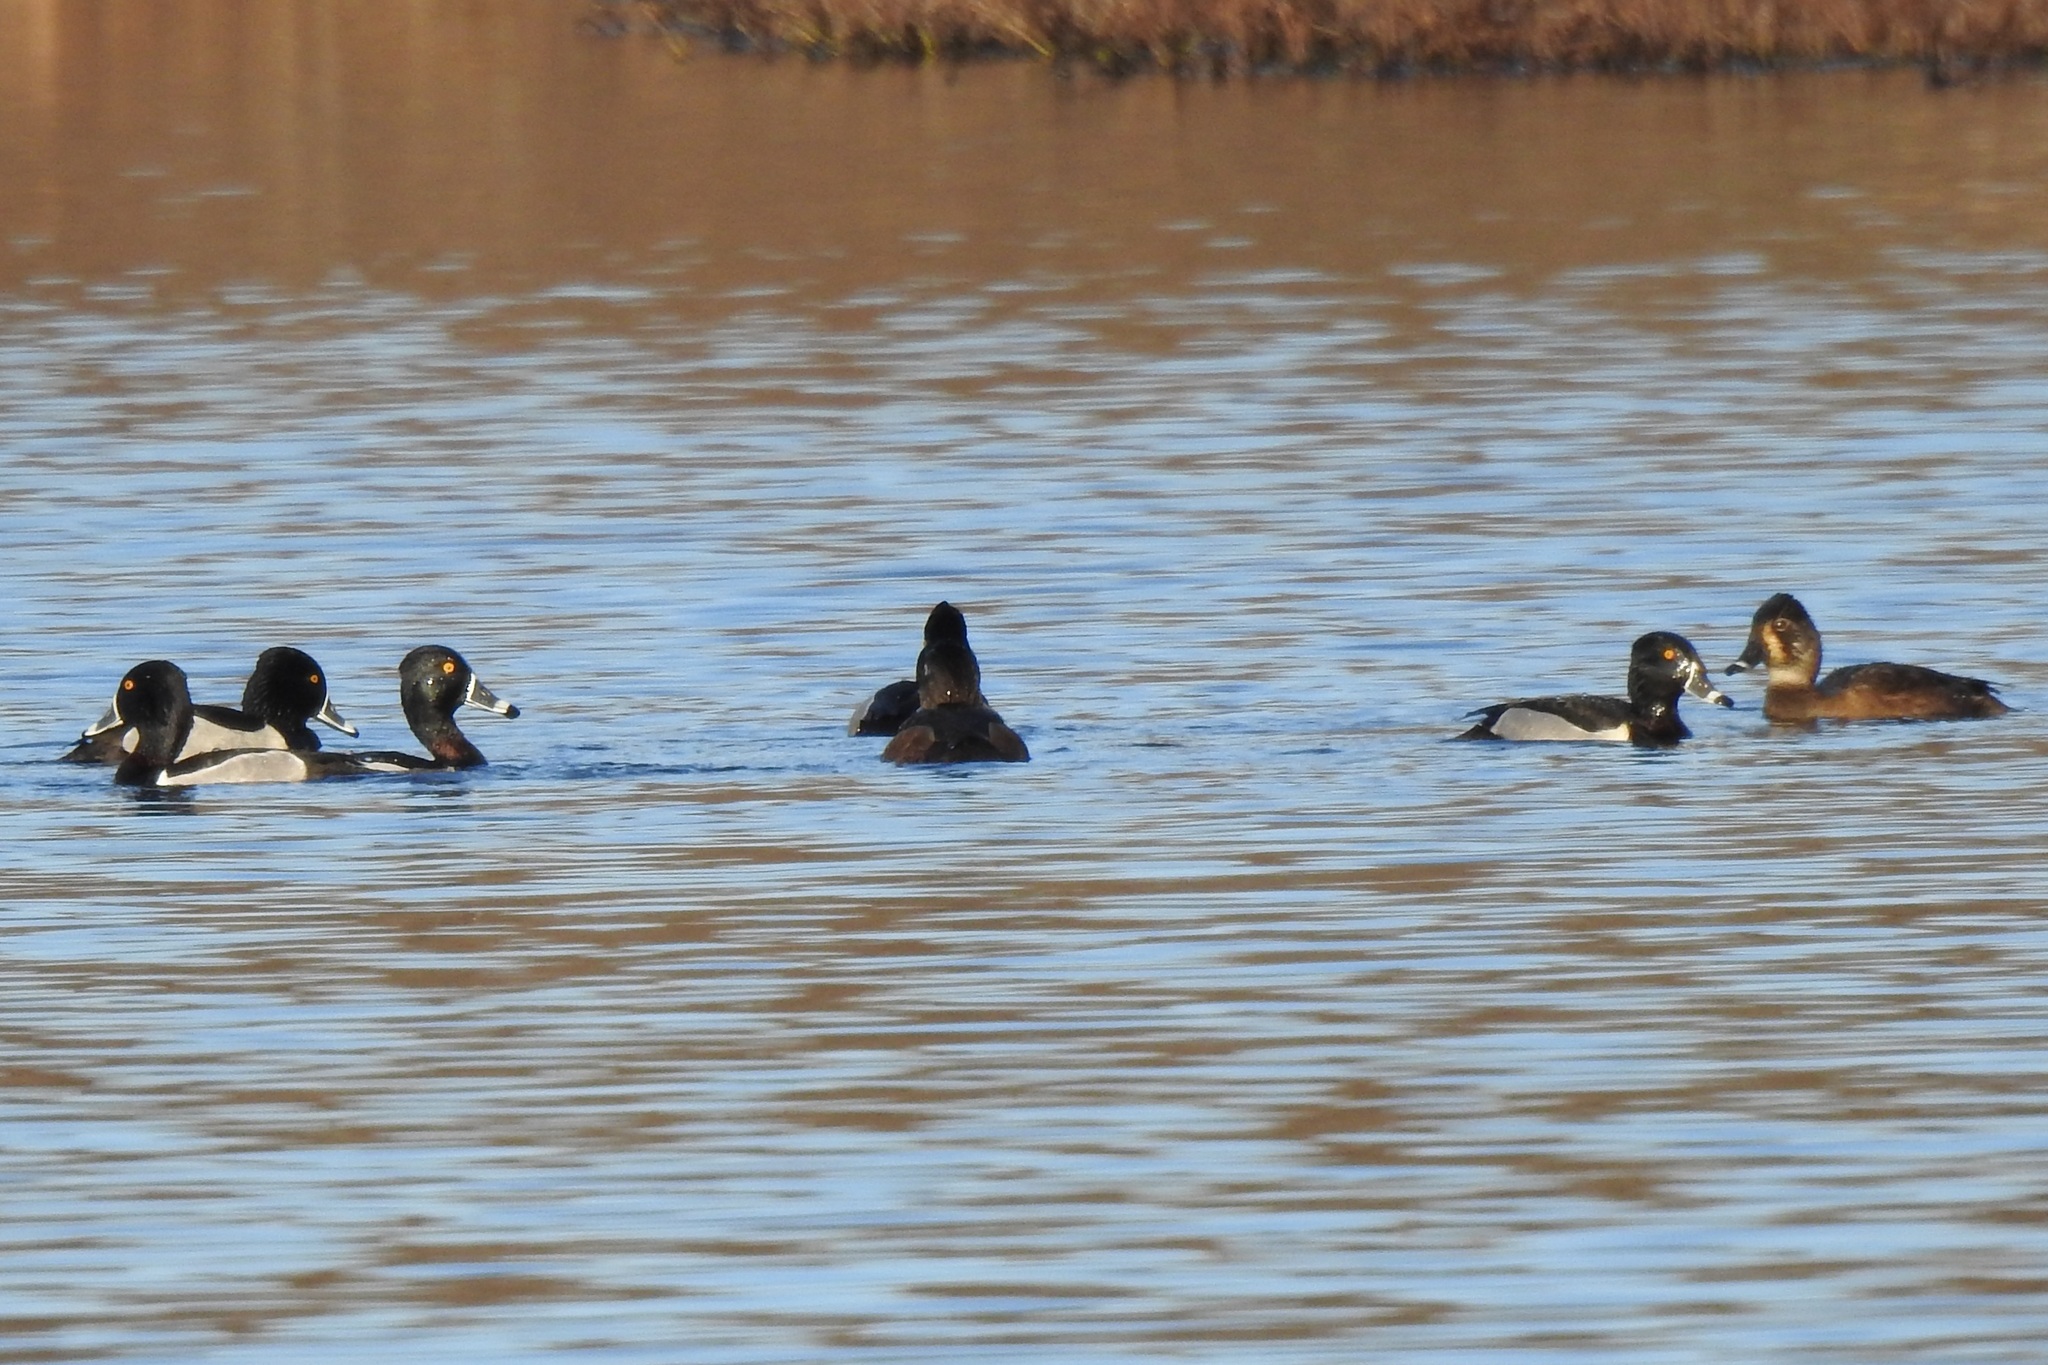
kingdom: Animalia
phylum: Chordata
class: Aves
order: Anseriformes
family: Anatidae
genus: Aythya
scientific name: Aythya collaris
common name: Ring-necked duck
